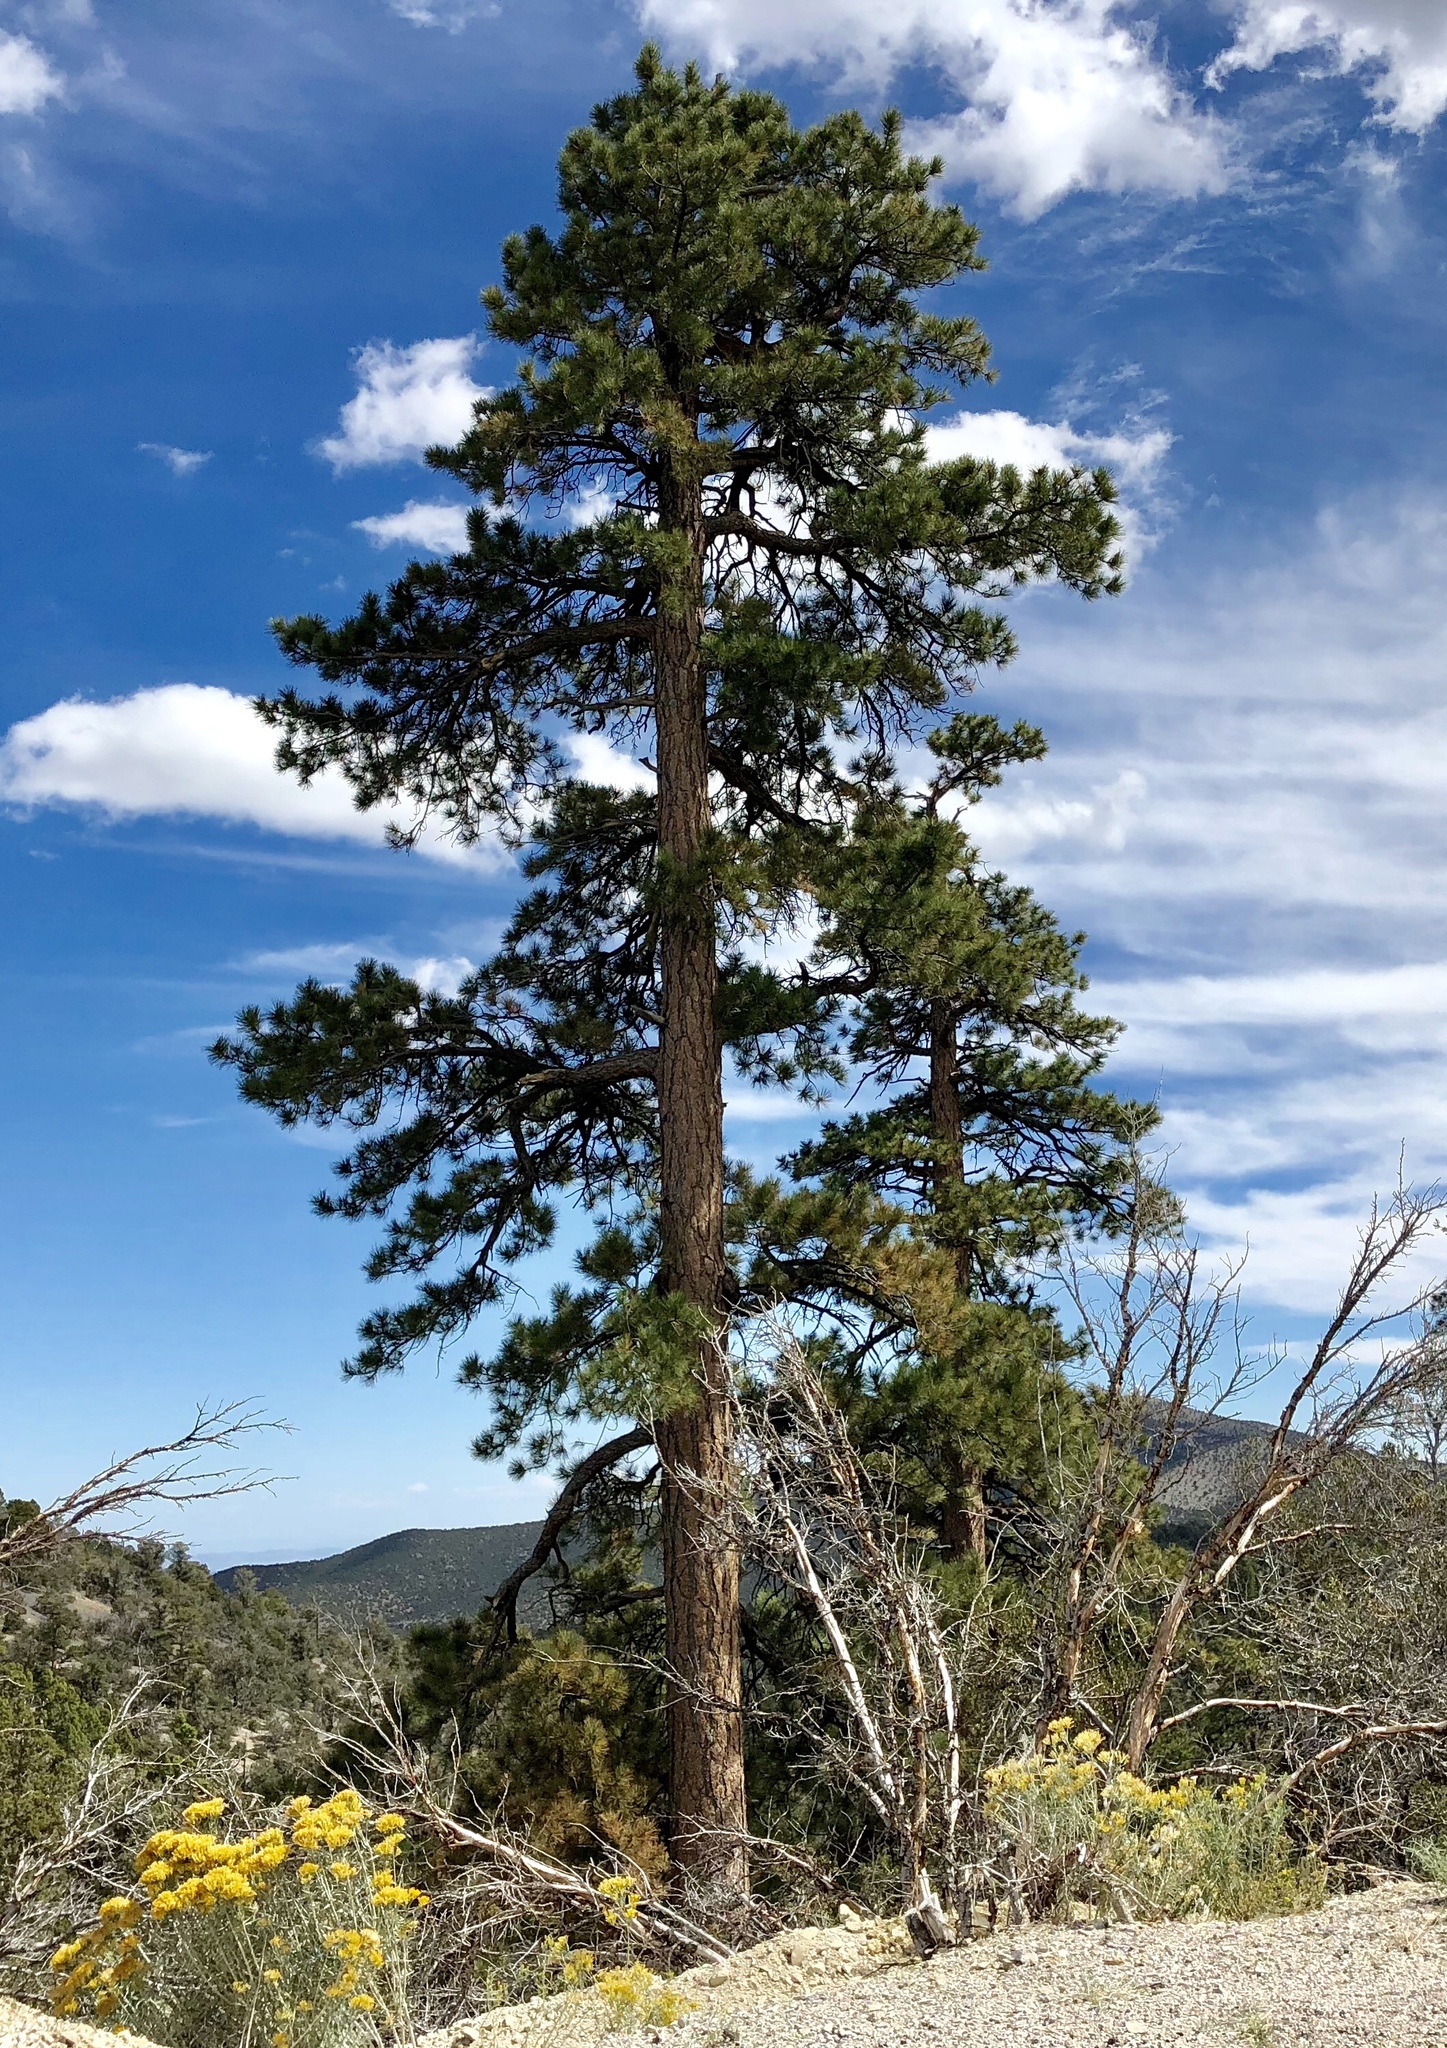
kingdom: Plantae
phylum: Tracheophyta
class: Pinopsida
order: Pinales
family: Pinaceae
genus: Pinus
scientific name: Pinus ponderosa
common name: Western yellow-pine
